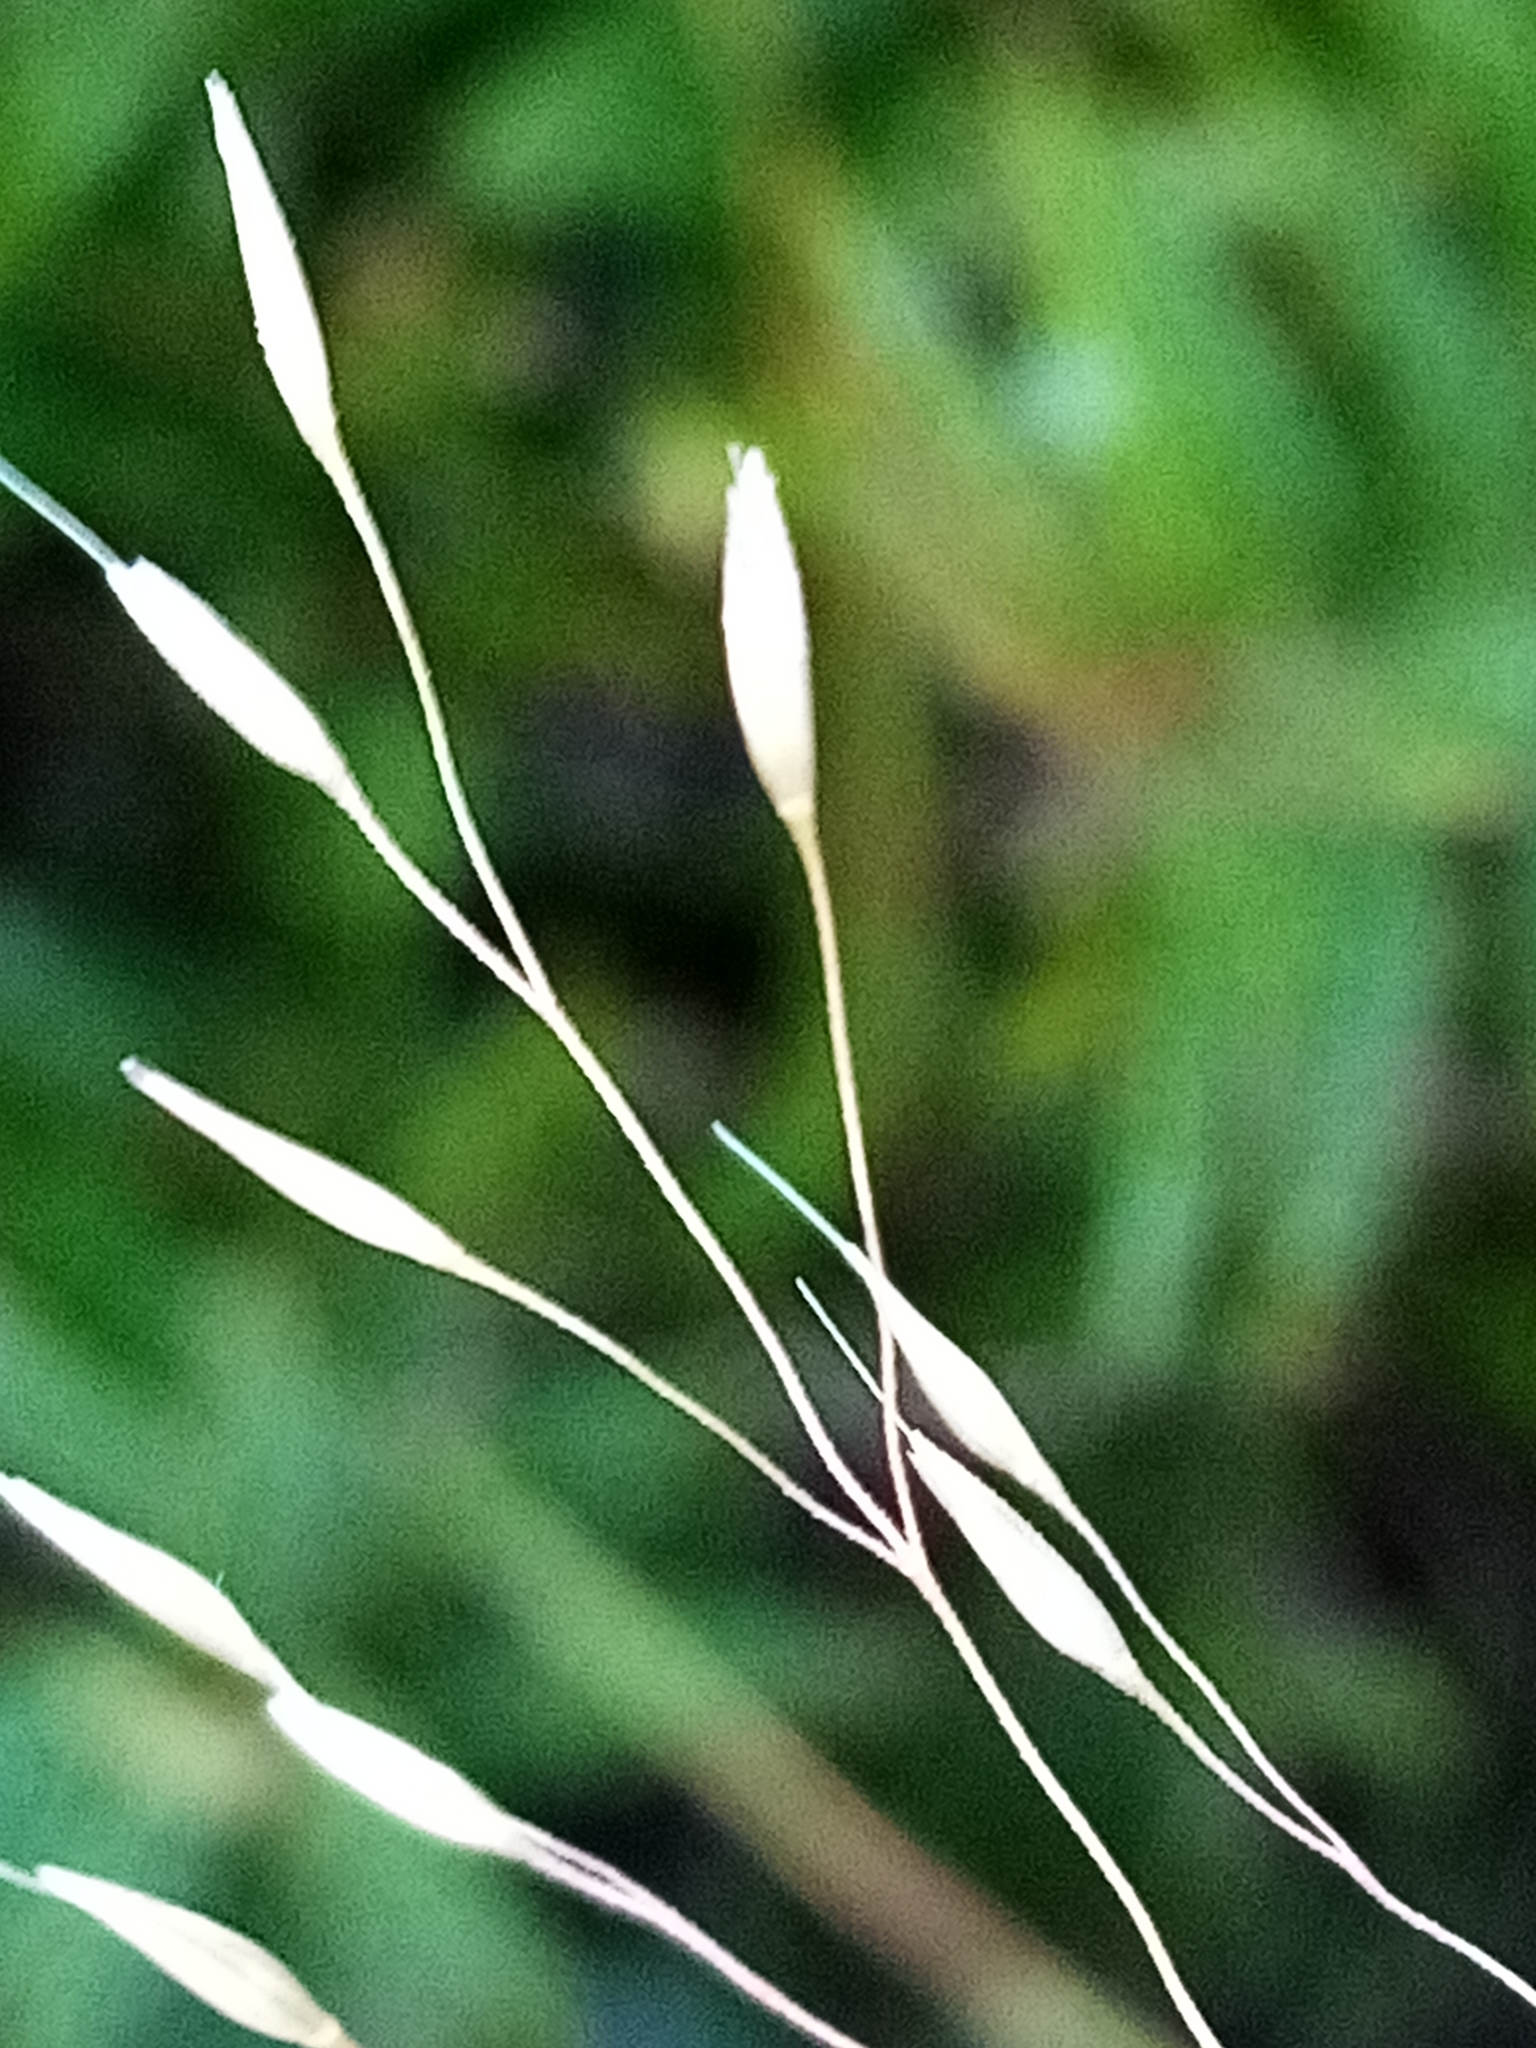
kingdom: Plantae
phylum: Tracheophyta
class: Liliopsida
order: Poales
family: Poaceae
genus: Aira
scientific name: Aira caryophyllea
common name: Silver hairgrass
